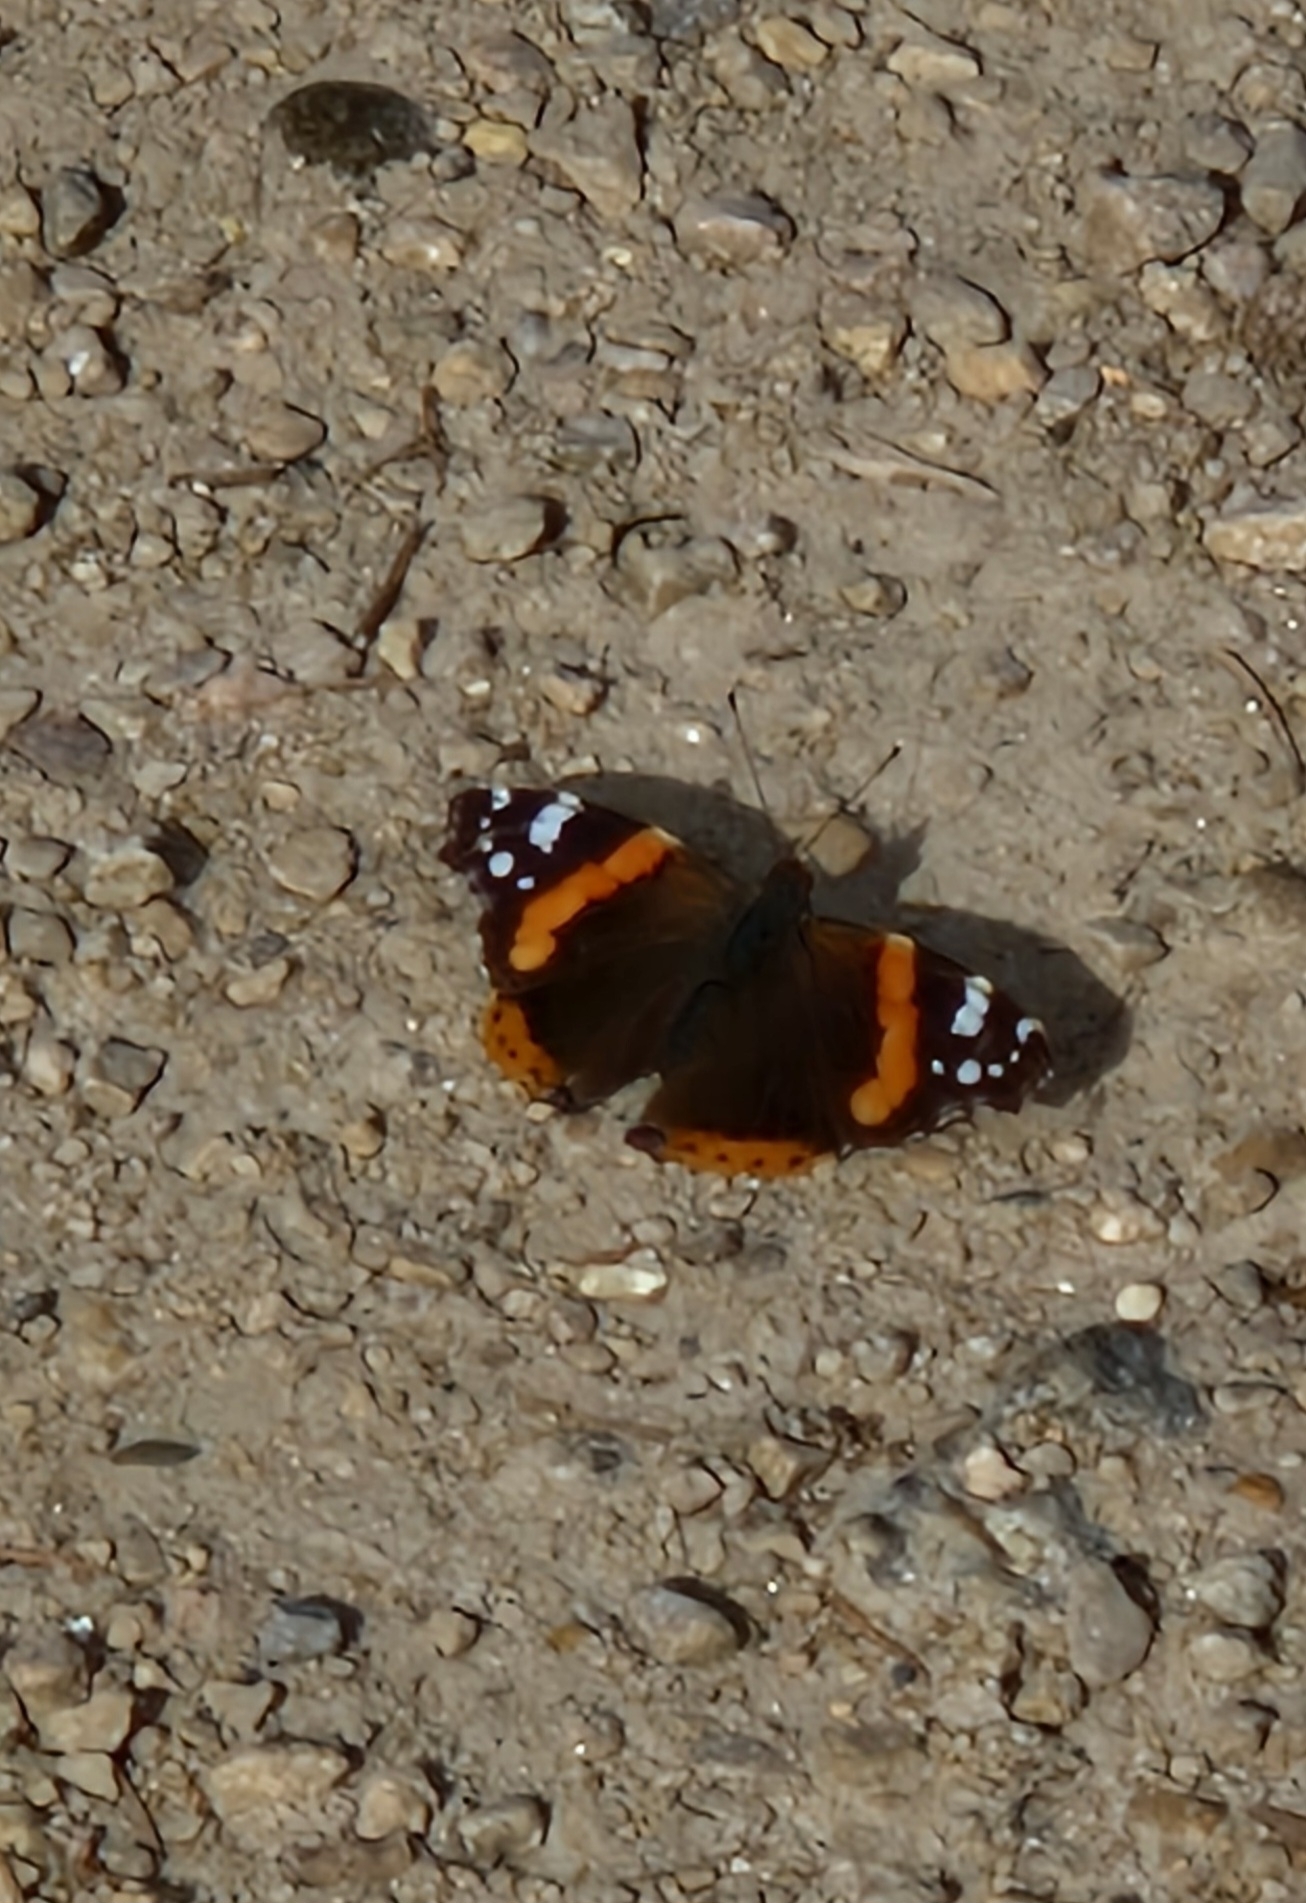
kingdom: Animalia
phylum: Arthropoda
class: Insecta
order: Lepidoptera
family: Nymphalidae
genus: Vanessa
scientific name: Vanessa atalanta
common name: Red admiral
